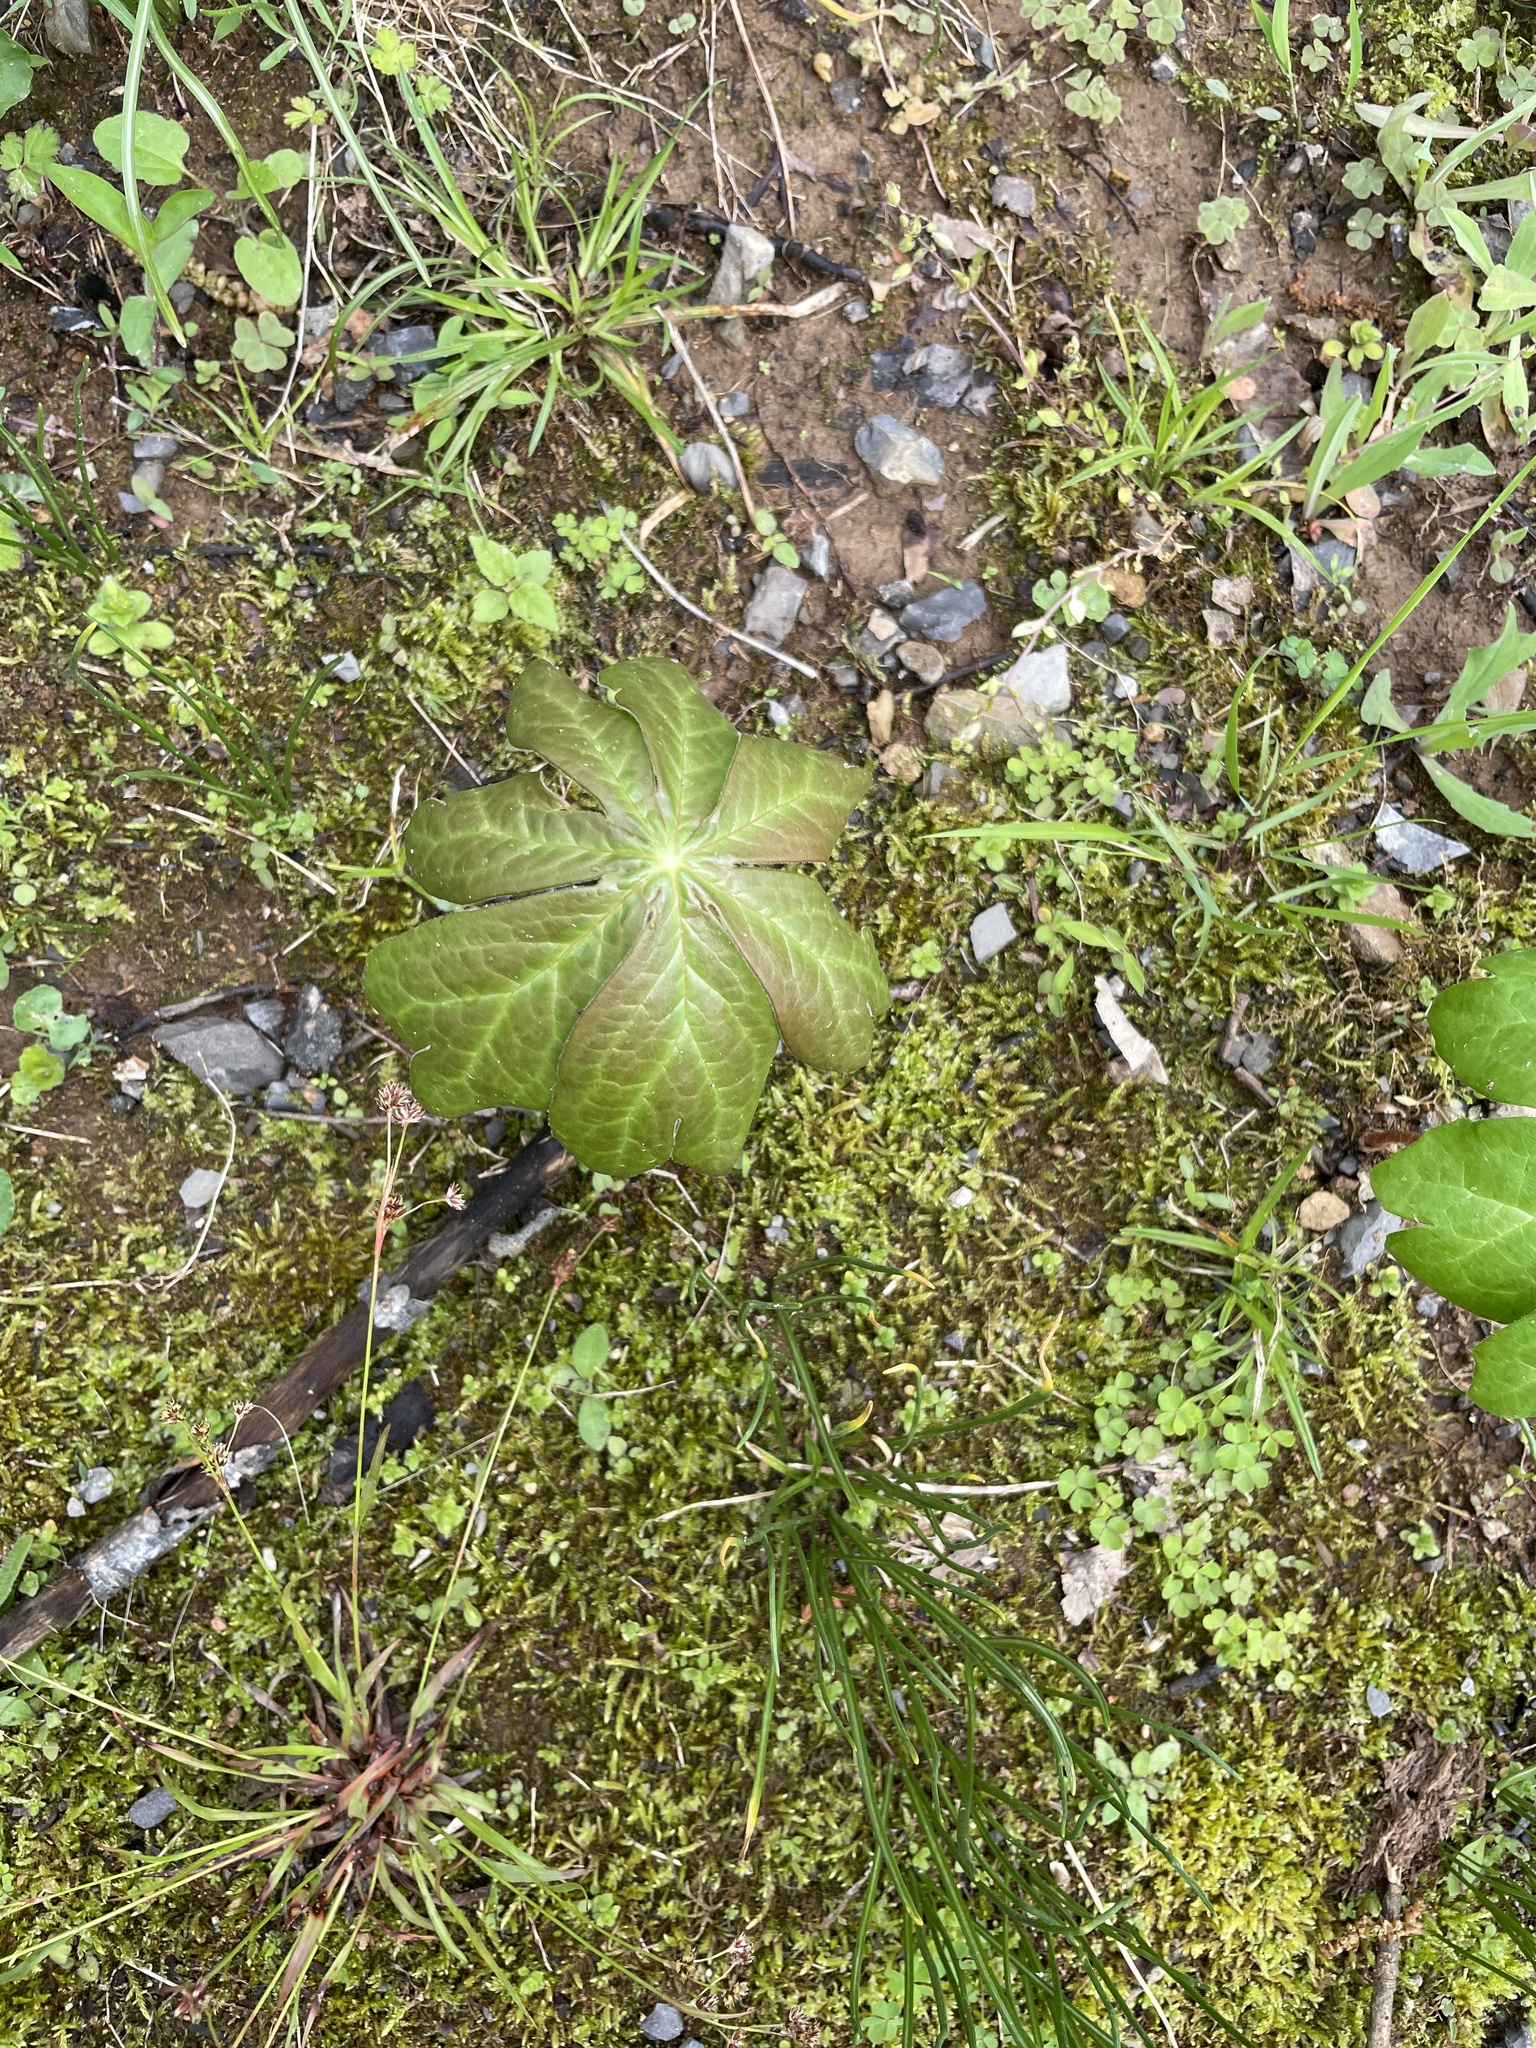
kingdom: Plantae
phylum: Tracheophyta
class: Magnoliopsida
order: Ranunculales
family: Berberidaceae
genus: Podophyllum
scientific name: Podophyllum peltatum
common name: Wild mandrake
